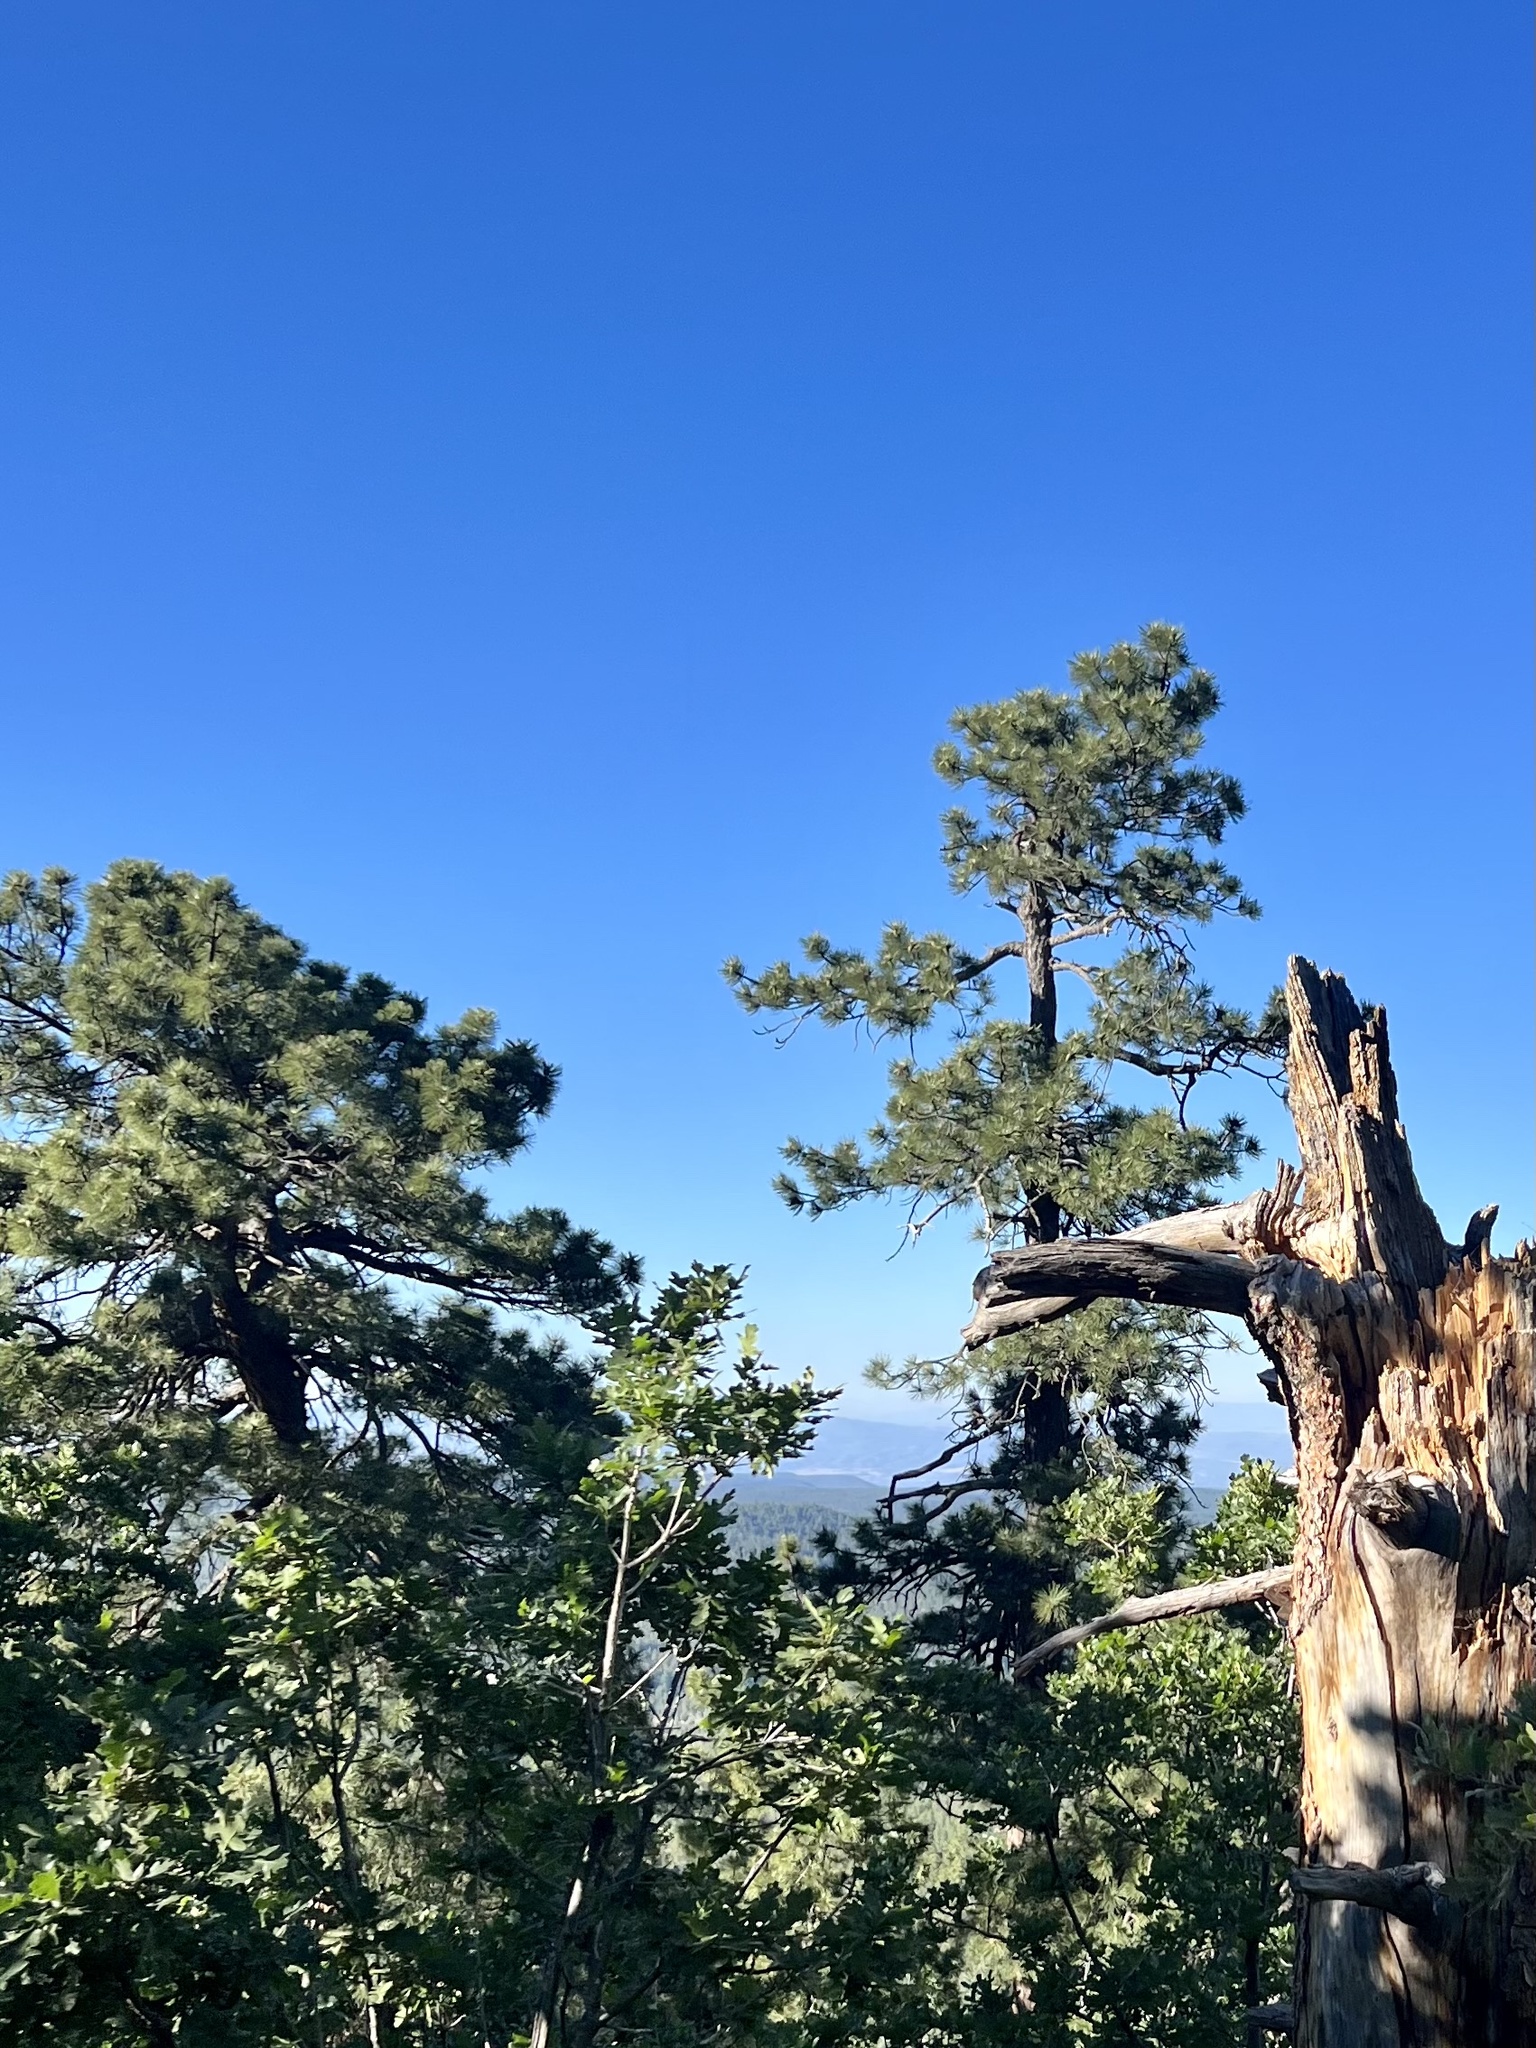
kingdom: Plantae
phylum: Tracheophyta
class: Pinopsida
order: Pinales
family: Pinaceae
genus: Pinus
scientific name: Pinus ponderosa
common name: Western yellow-pine
